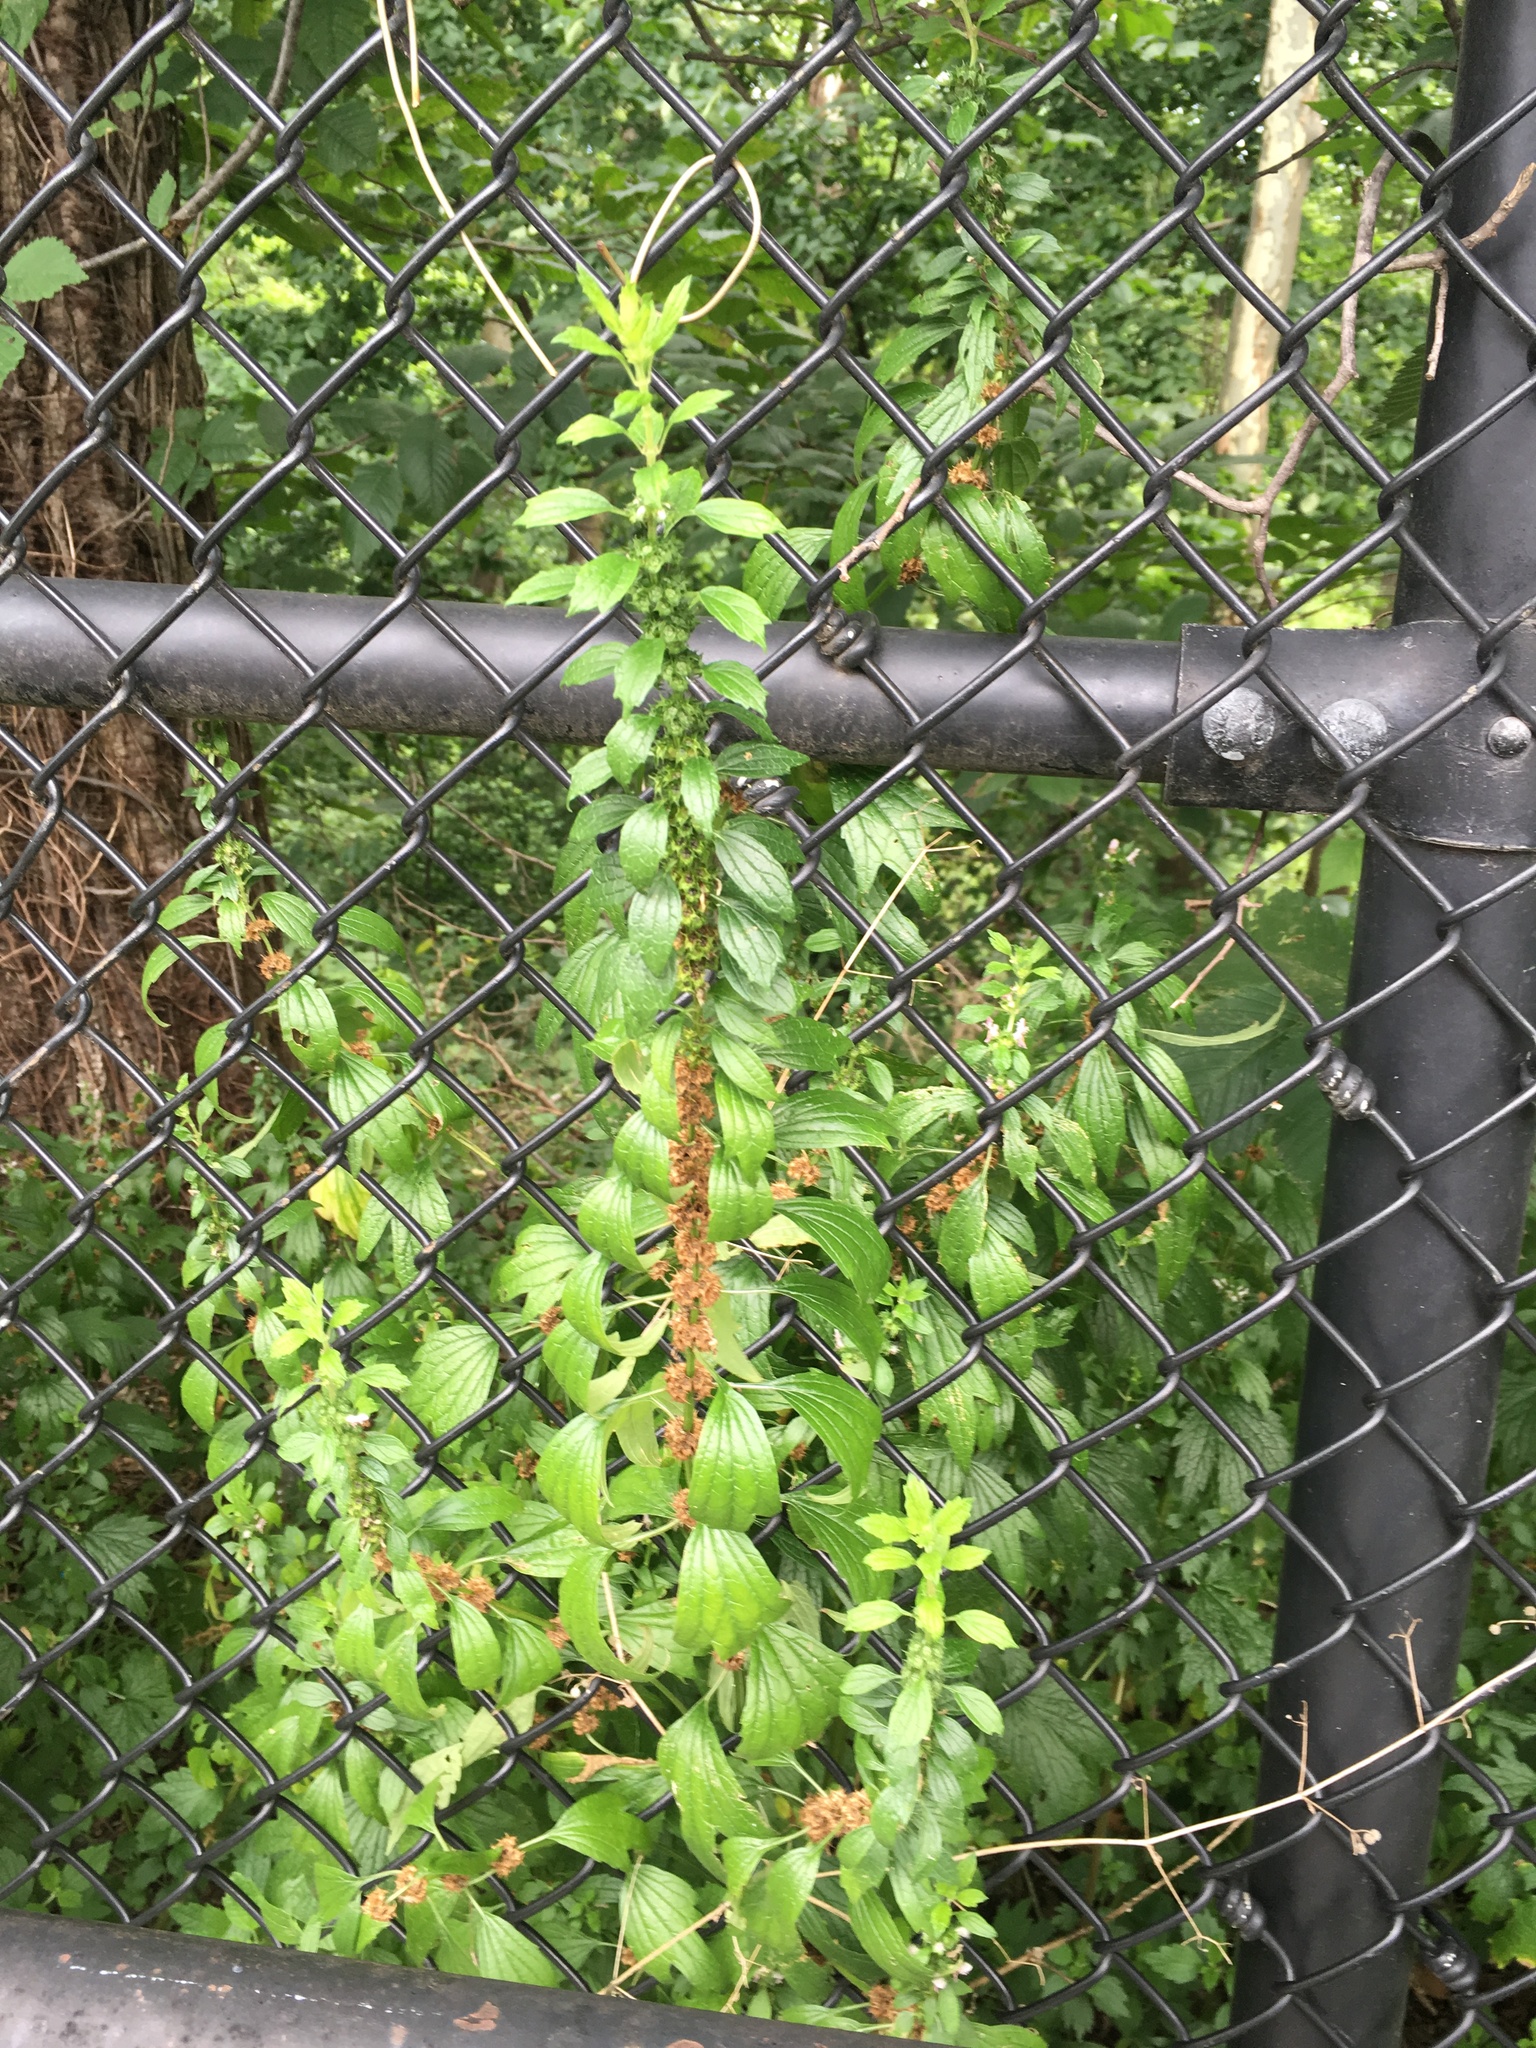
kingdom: Plantae
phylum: Tracheophyta
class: Magnoliopsida
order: Lamiales
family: Lamiaceae
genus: Leonurus
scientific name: Leonurus cardiaca
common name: Motherwort
